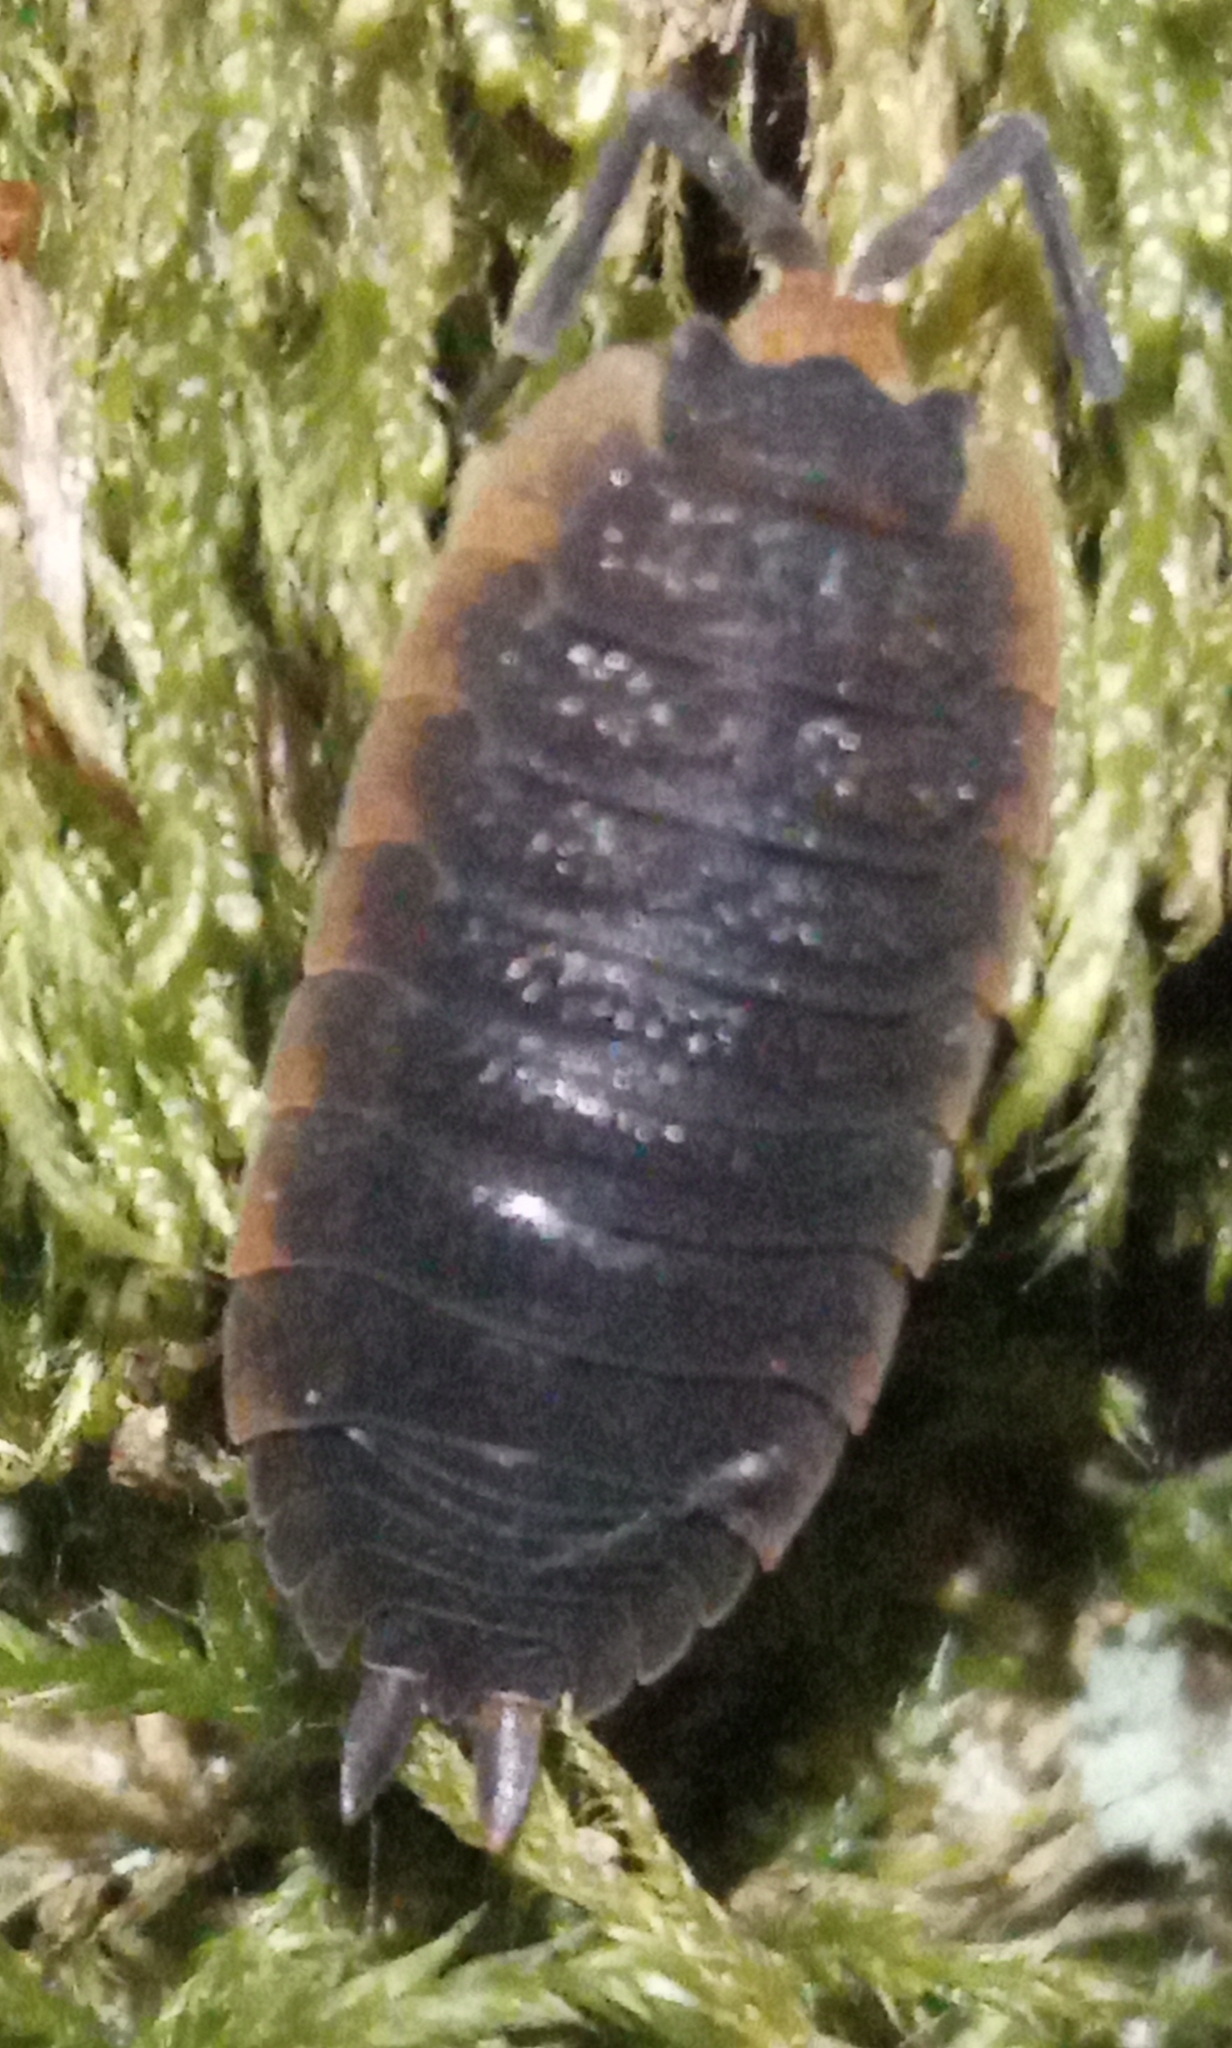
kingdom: Animalia
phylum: Arthropoda
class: Malacostraca
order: Isopoda
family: Porcellionidae
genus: Porcellio
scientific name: Porcellio scaber
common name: Common rough woodlouse
